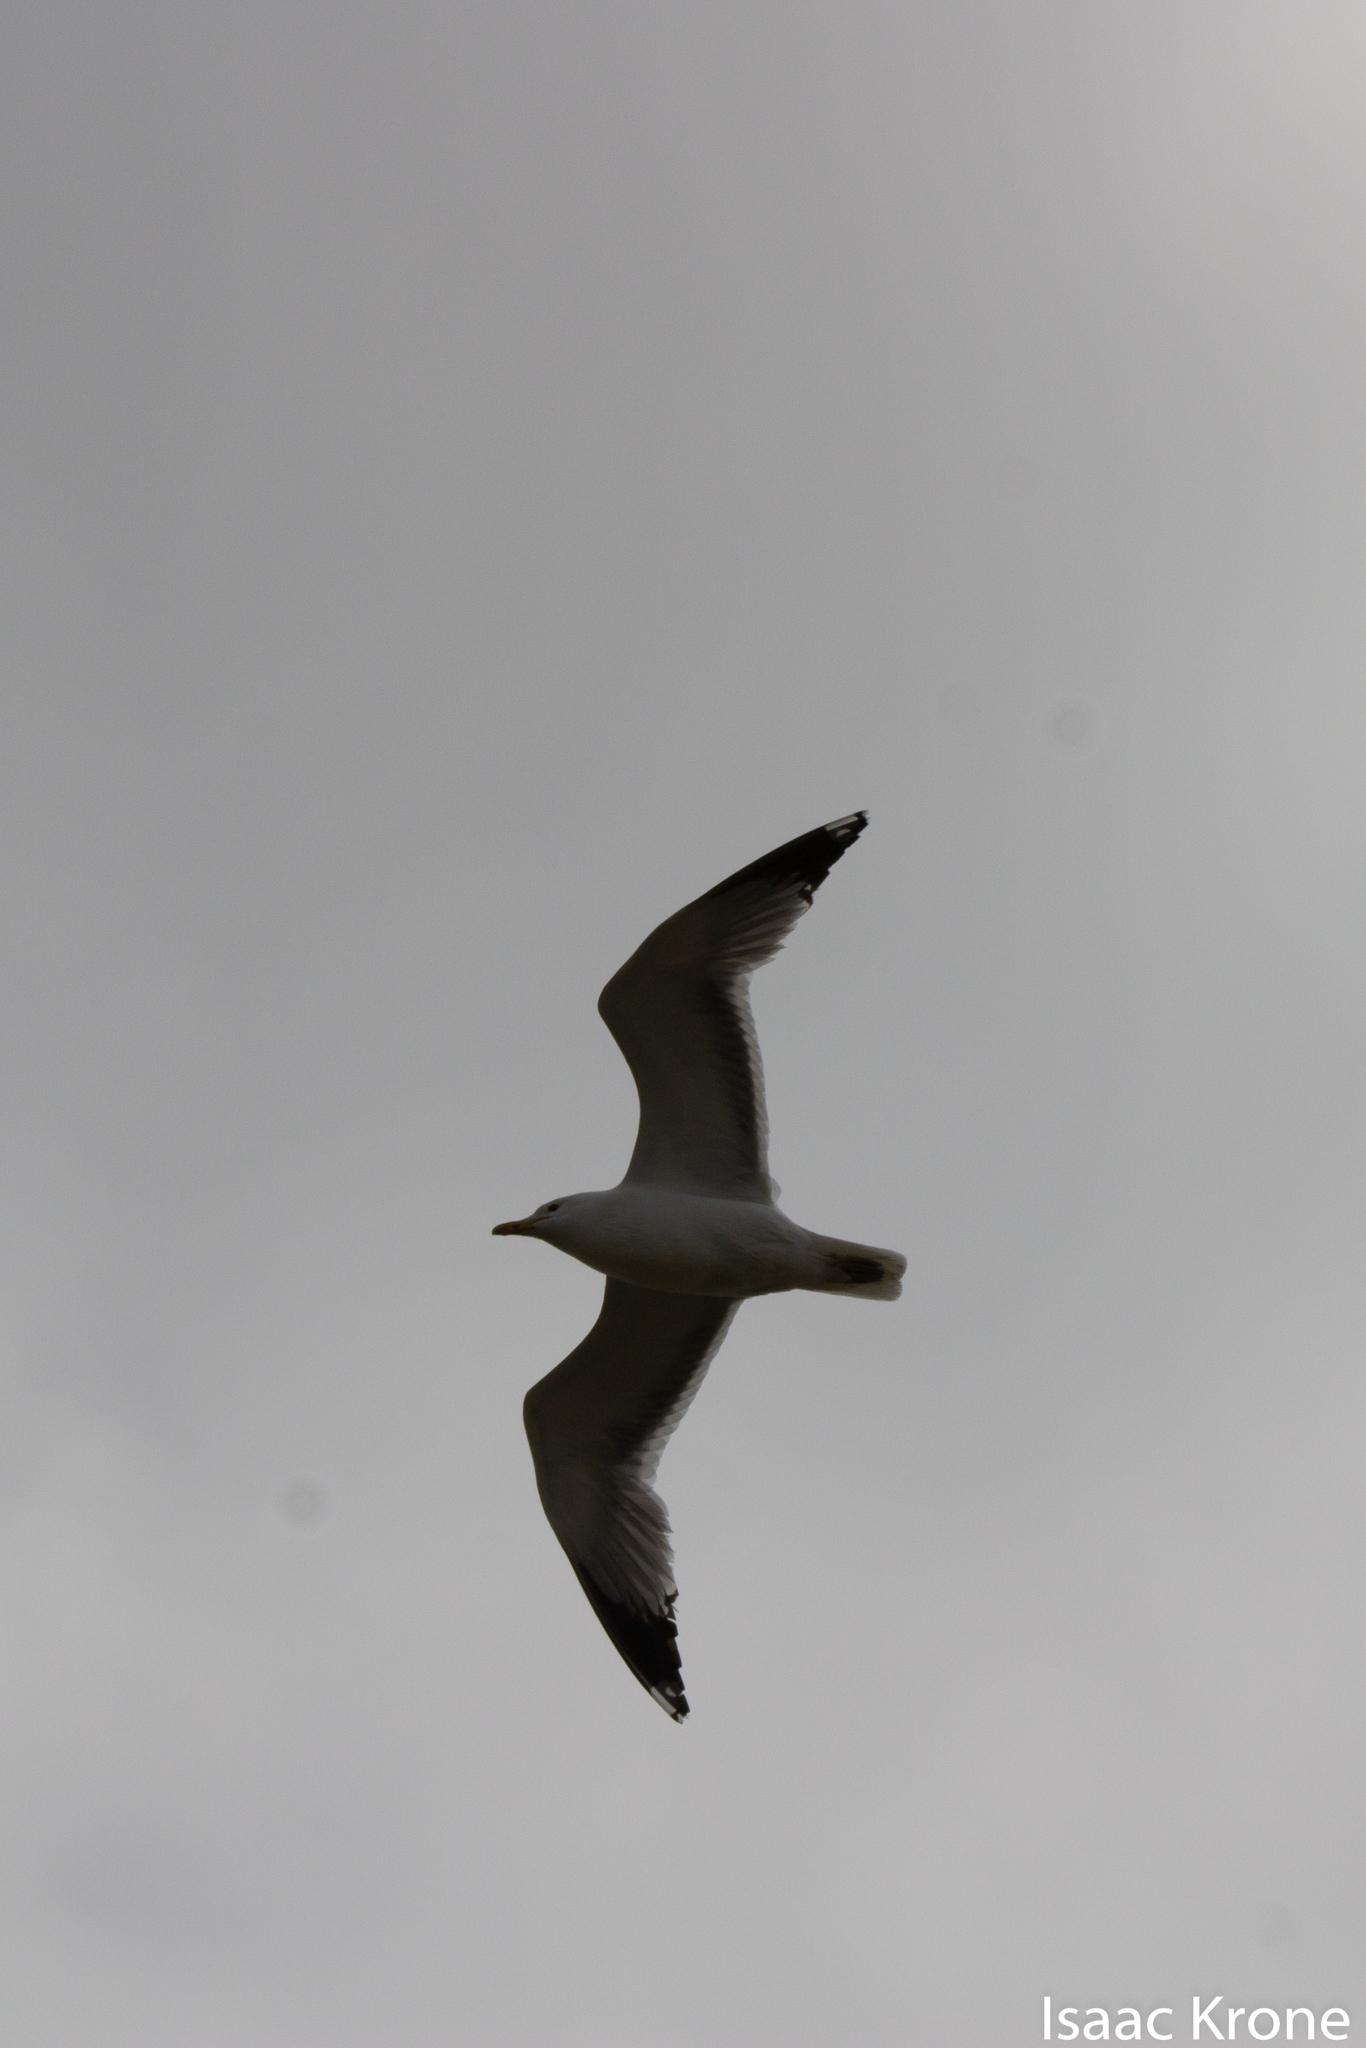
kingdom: Animalia
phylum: Chordata
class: Aves
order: Charadriiformes
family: Laridae
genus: Larus
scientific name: Larus californicus
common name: California gull
